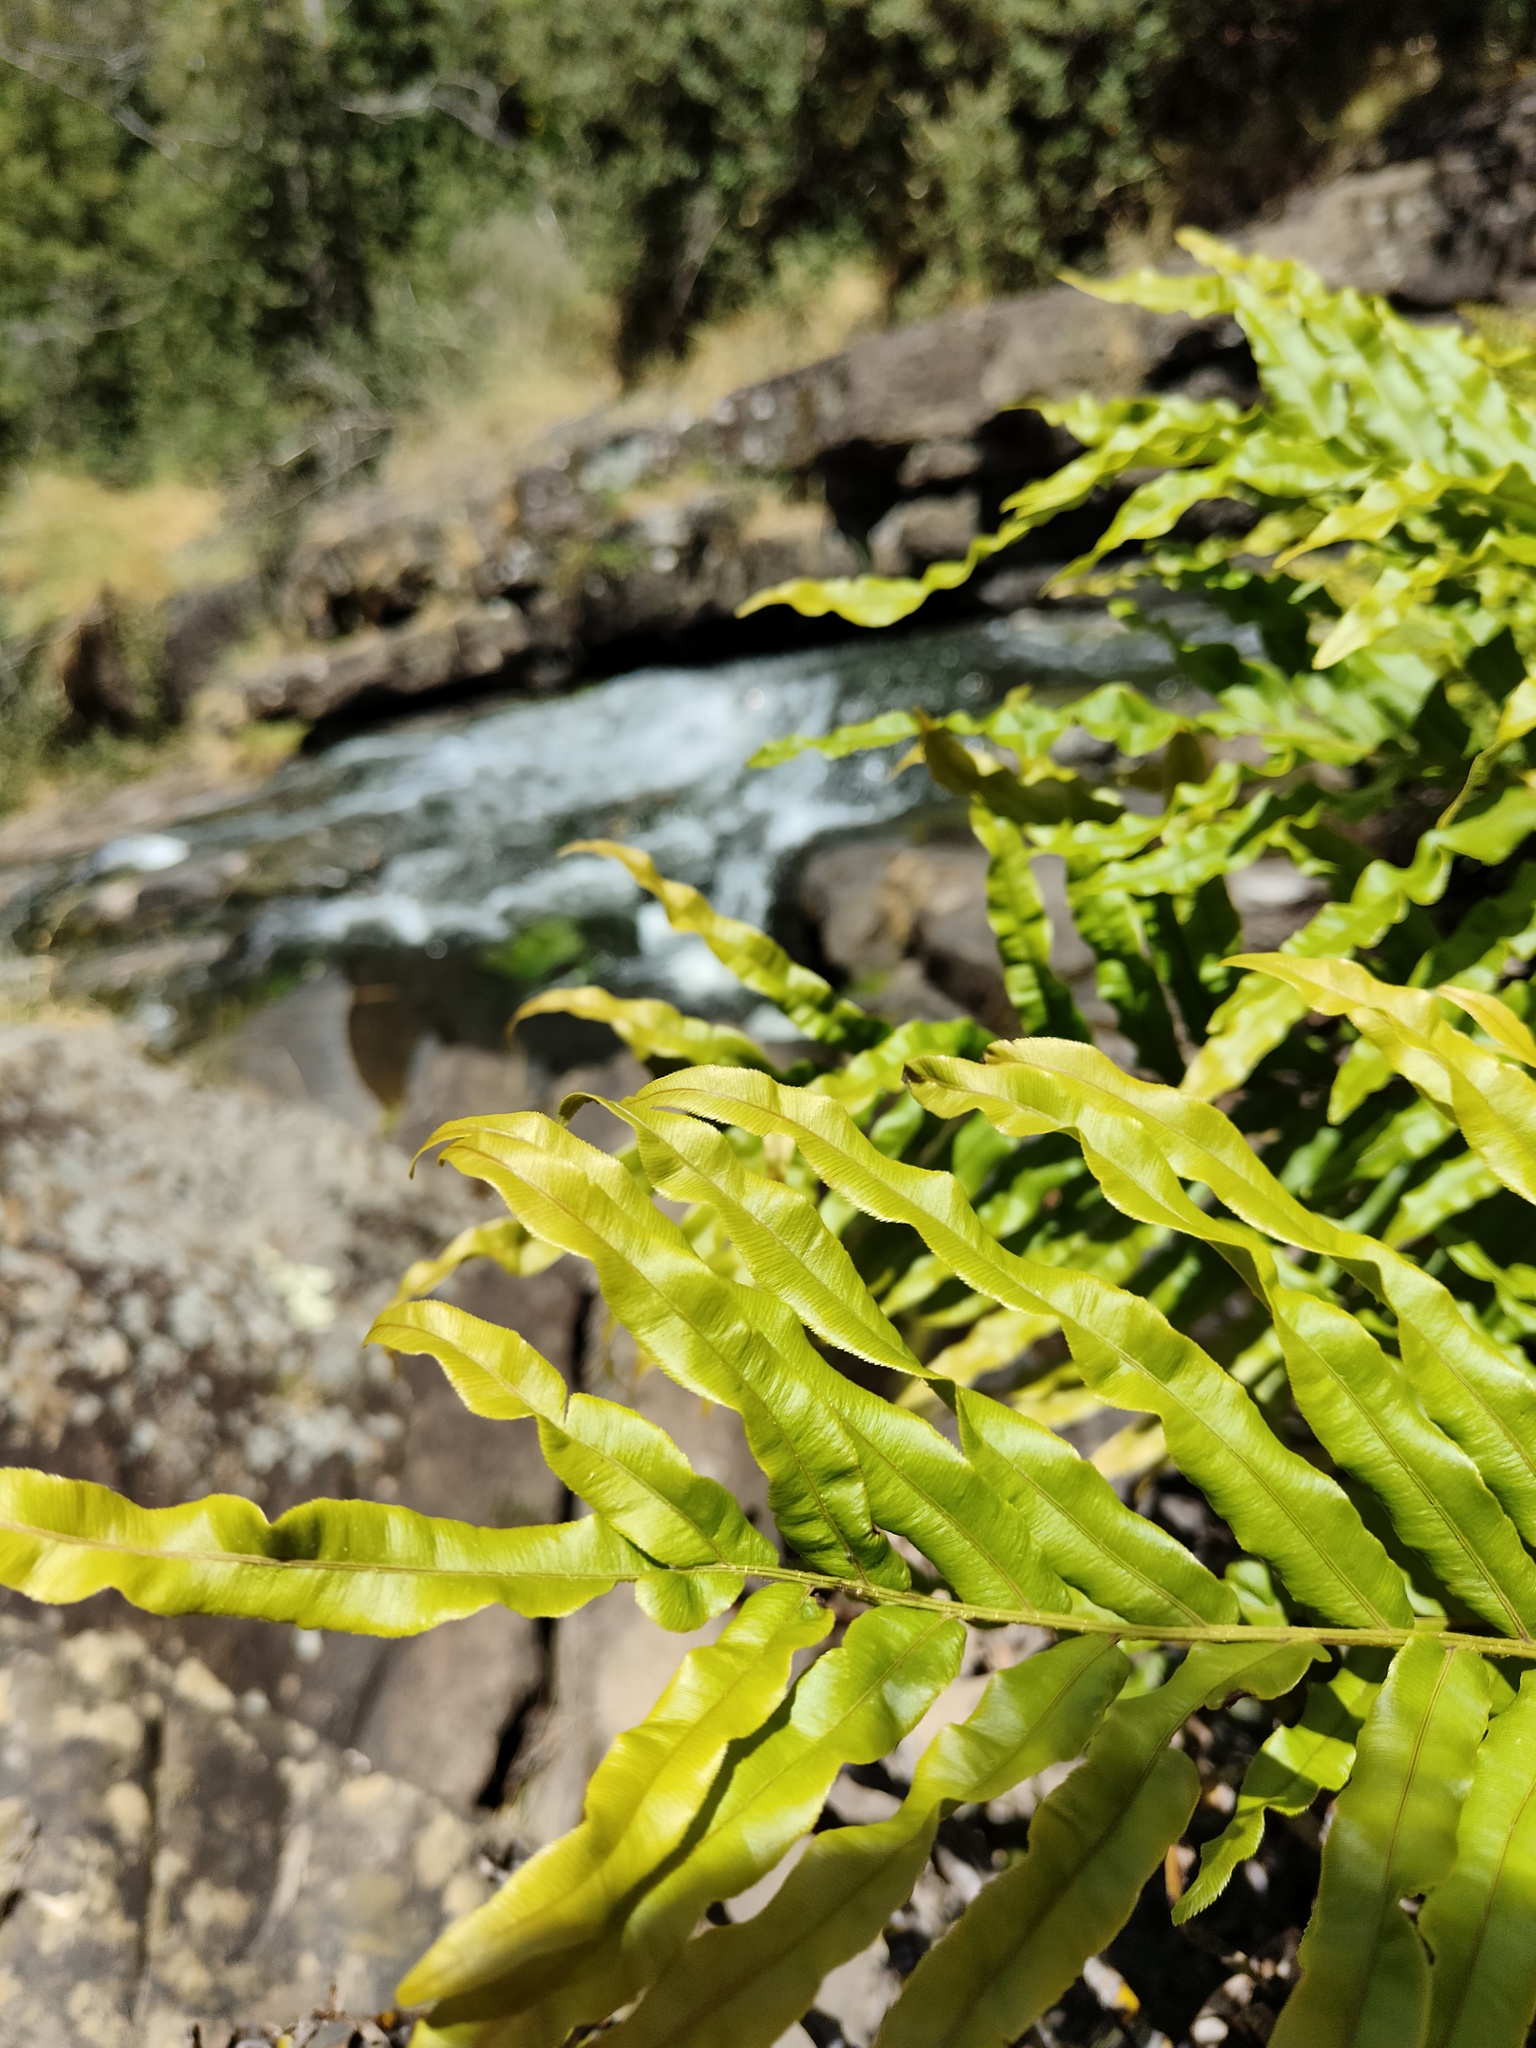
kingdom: Plantae
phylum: Tracheophyta
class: Polypodiopsida
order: Polypodiales
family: Blechnaceae
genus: Parablechnum
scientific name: Parablechnum minus
